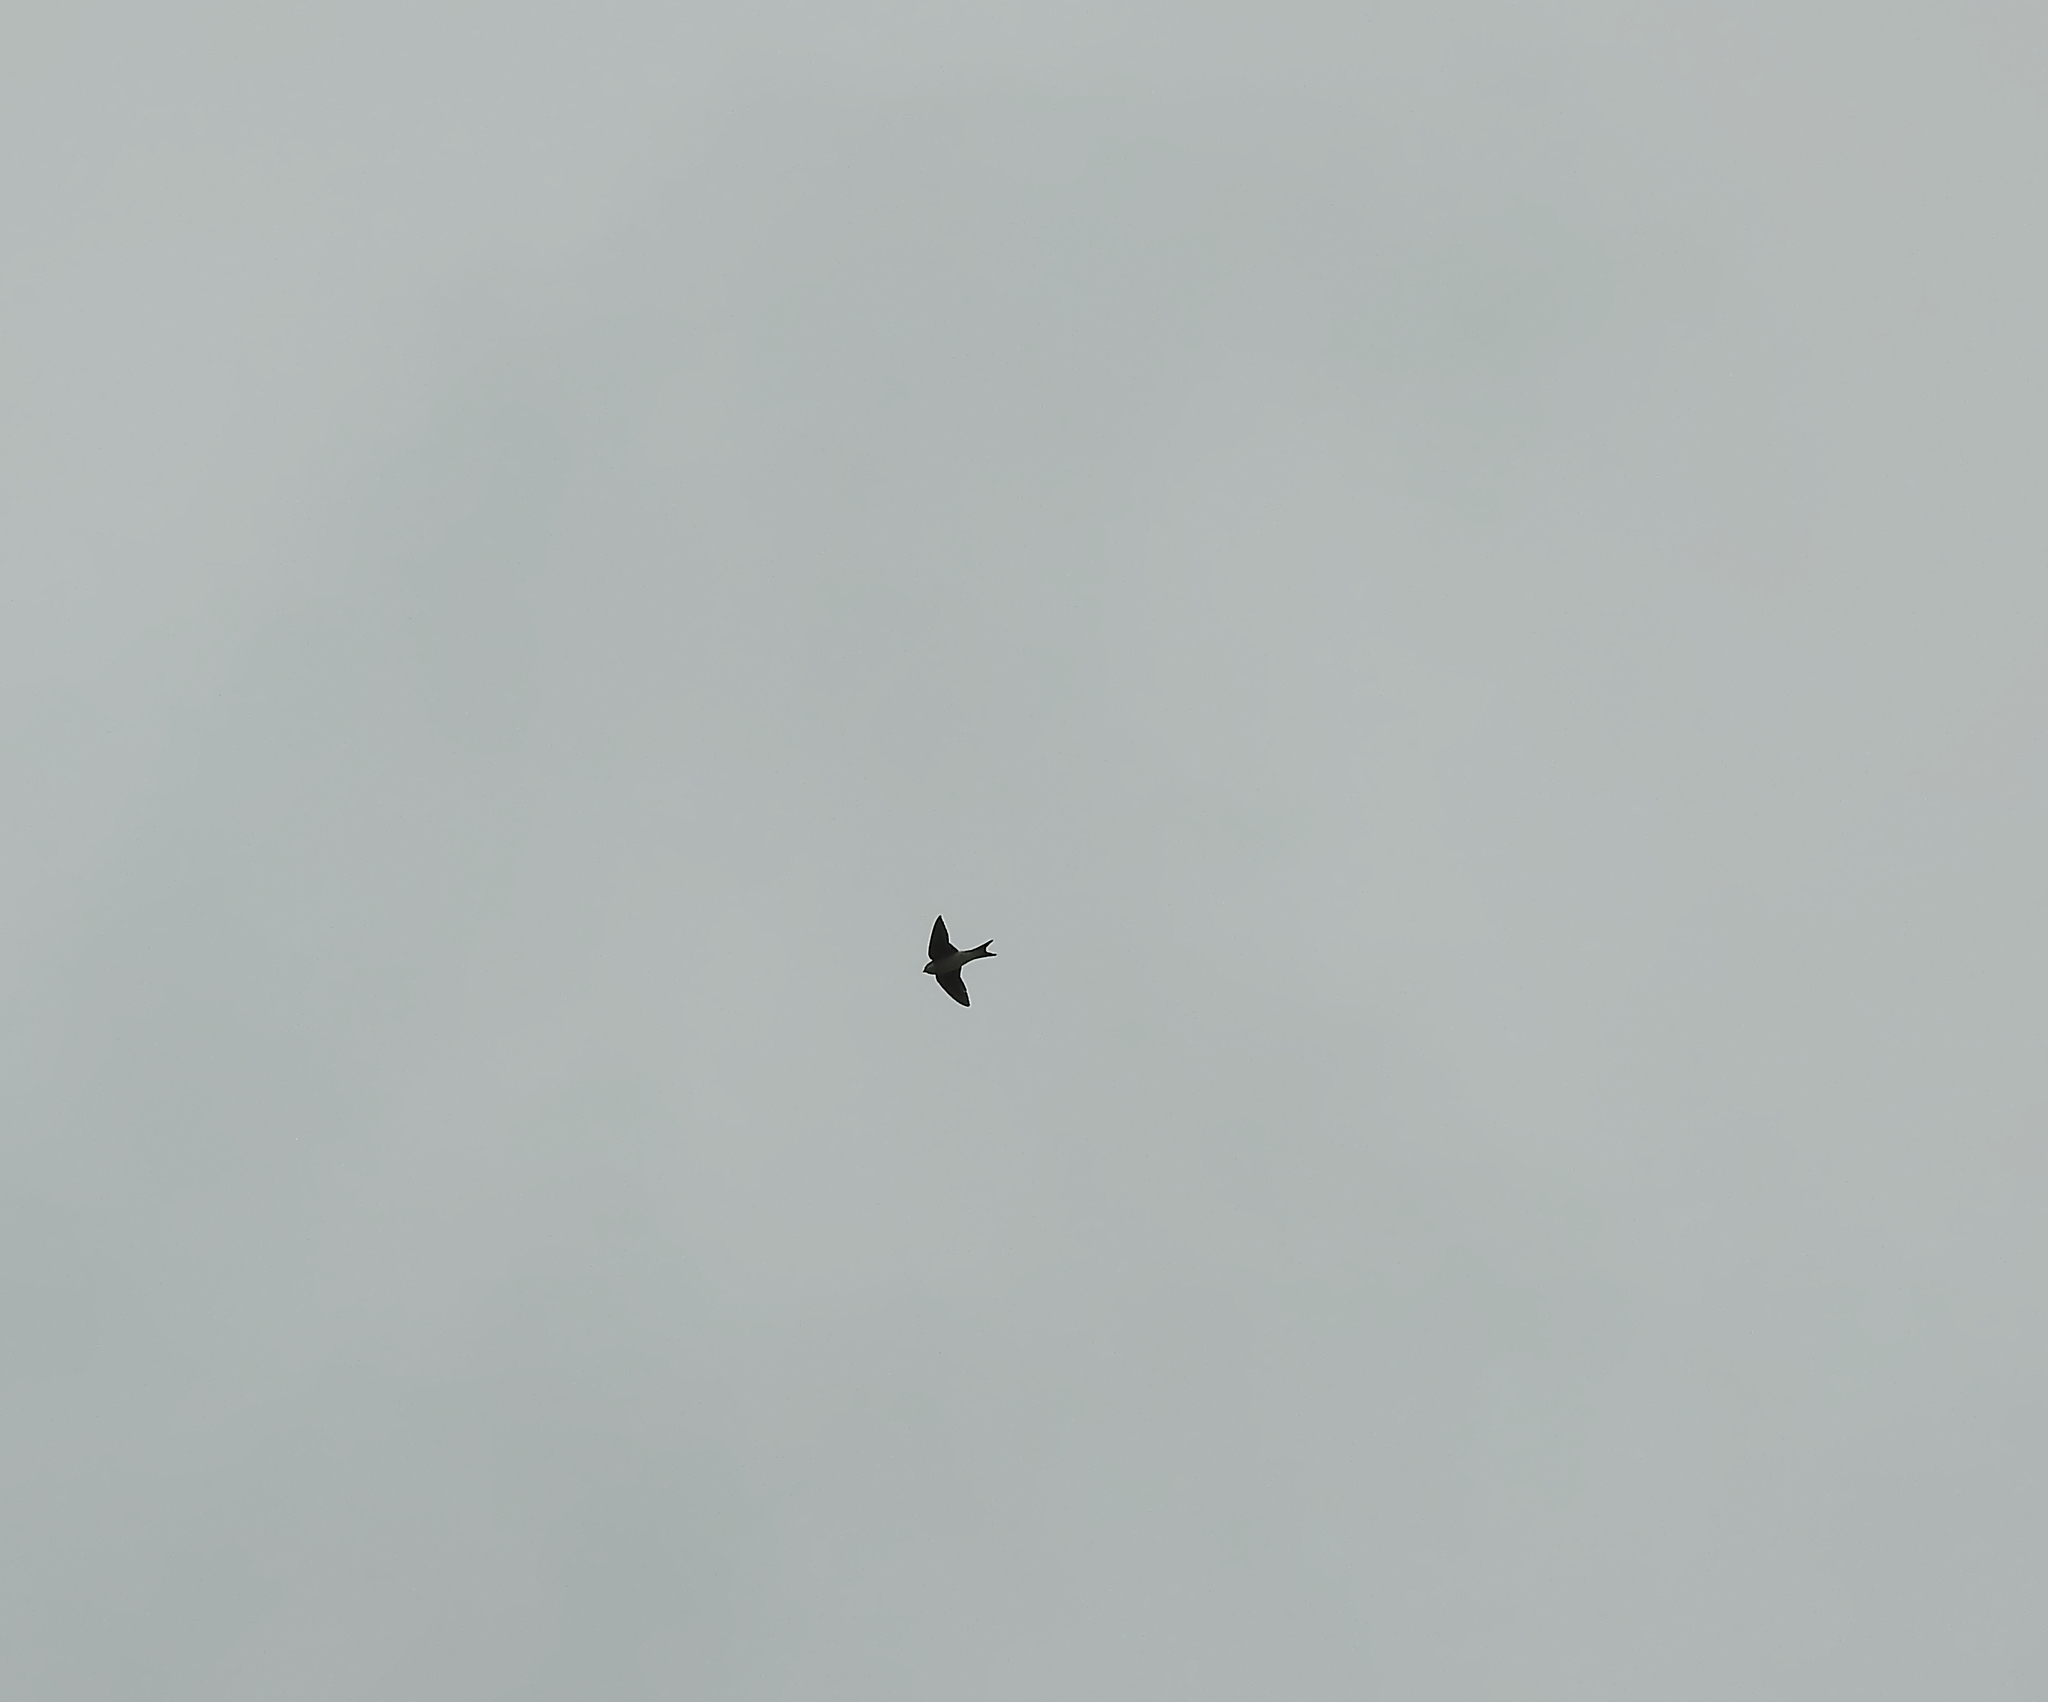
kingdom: Animalia
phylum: Chordata
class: Aves
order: Passeriformes
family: Hirundinidae
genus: Delichon
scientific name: Delichon urbicum
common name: Common house martin
